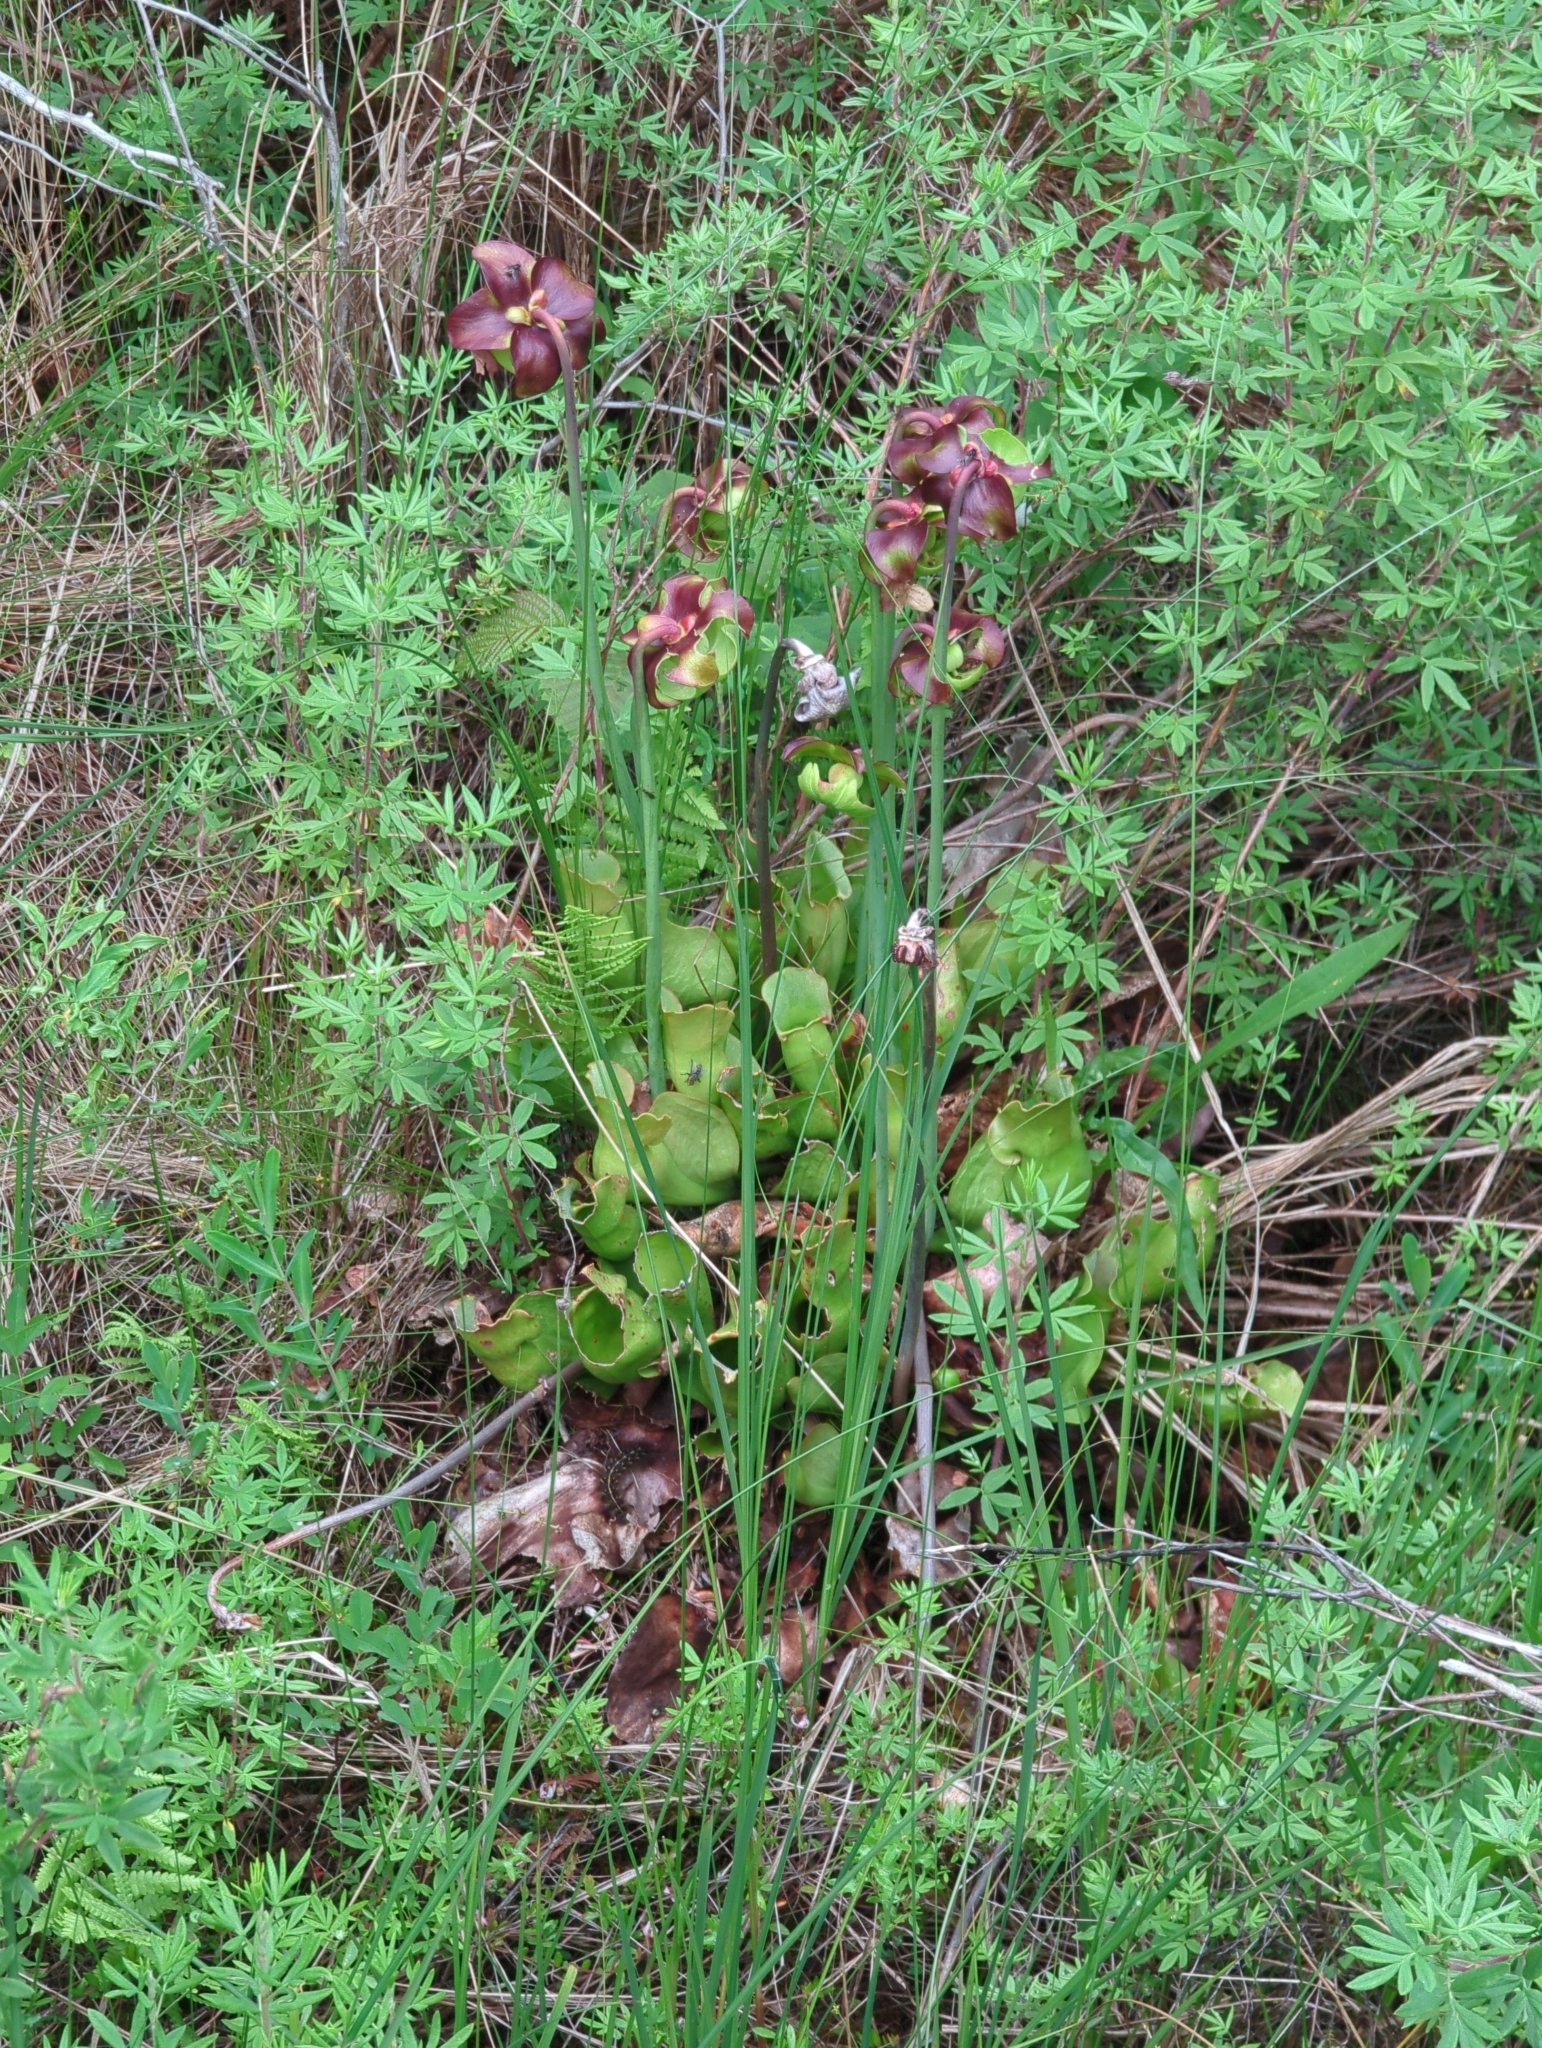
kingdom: Plantae
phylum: Tracheophyta
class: Magnoliopsida
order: Ericales
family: Sarraceniaceae
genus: Sarracenia
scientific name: Sarracenia purpurea
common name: Pitcherplant
